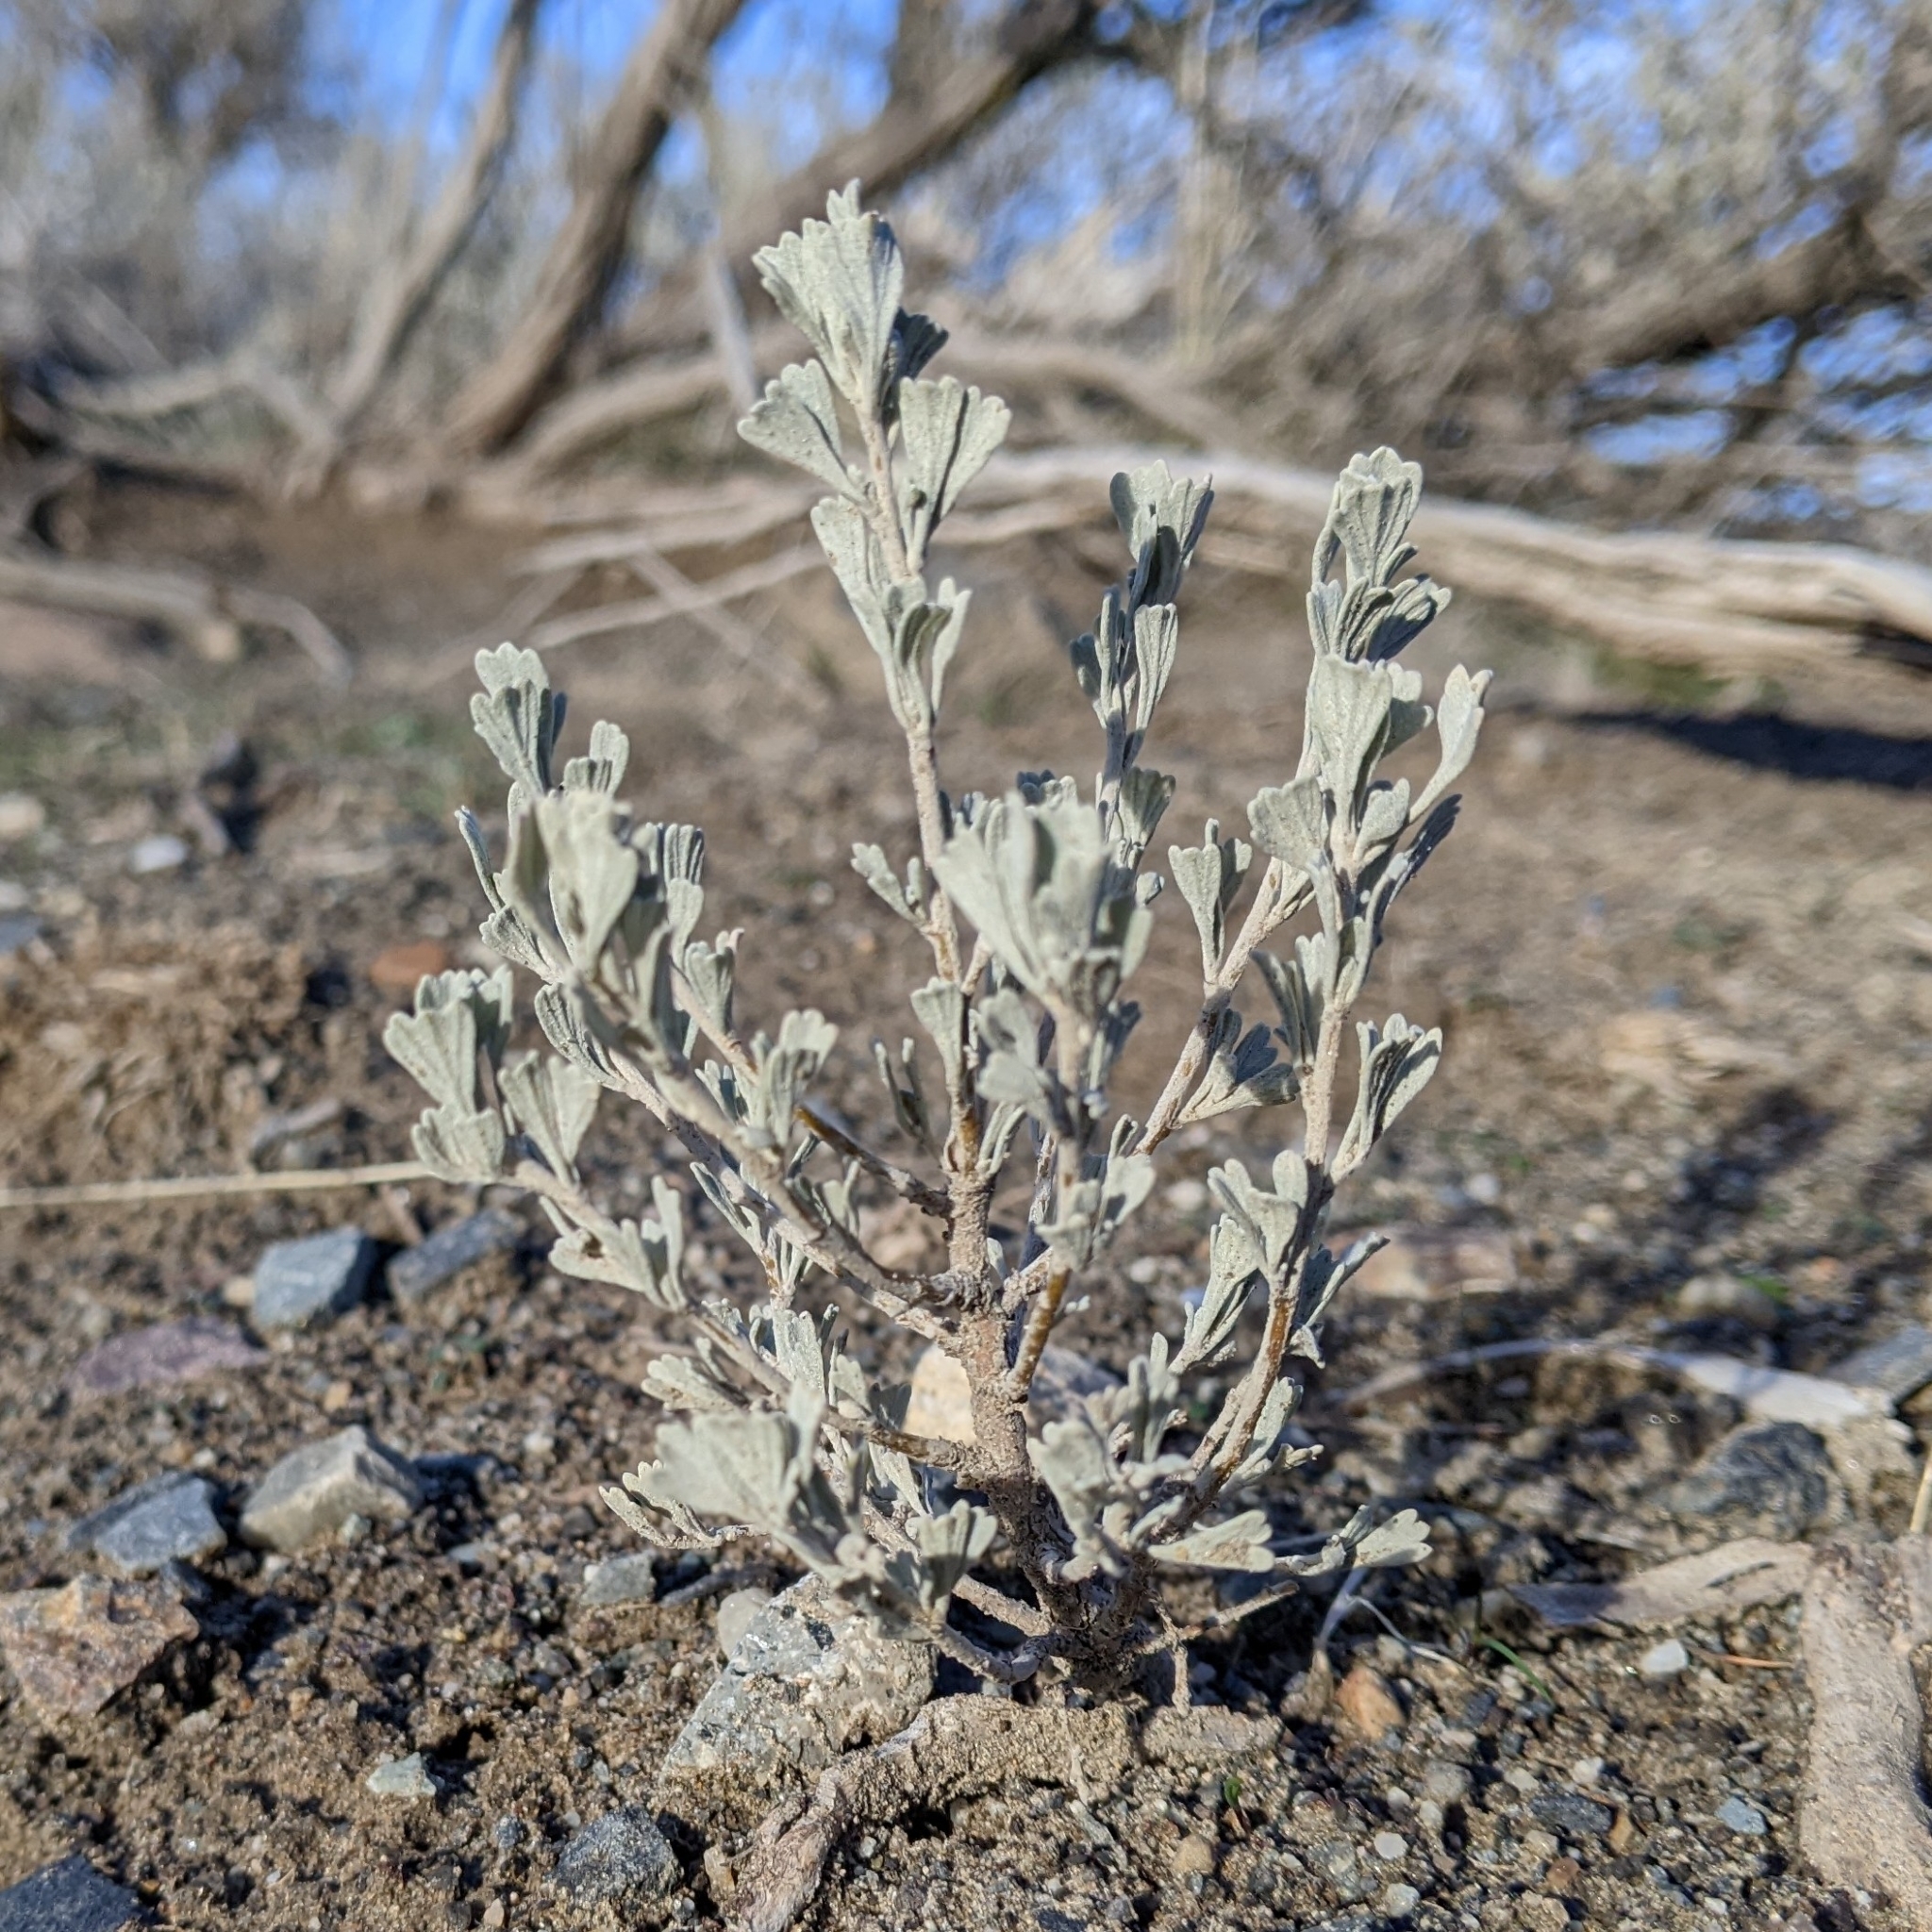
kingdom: Plantae
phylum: Tracheophyta
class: Magnoliopsida
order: Asterales
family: Asteraceae
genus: Artemisia
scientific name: Artemisia tridentata
